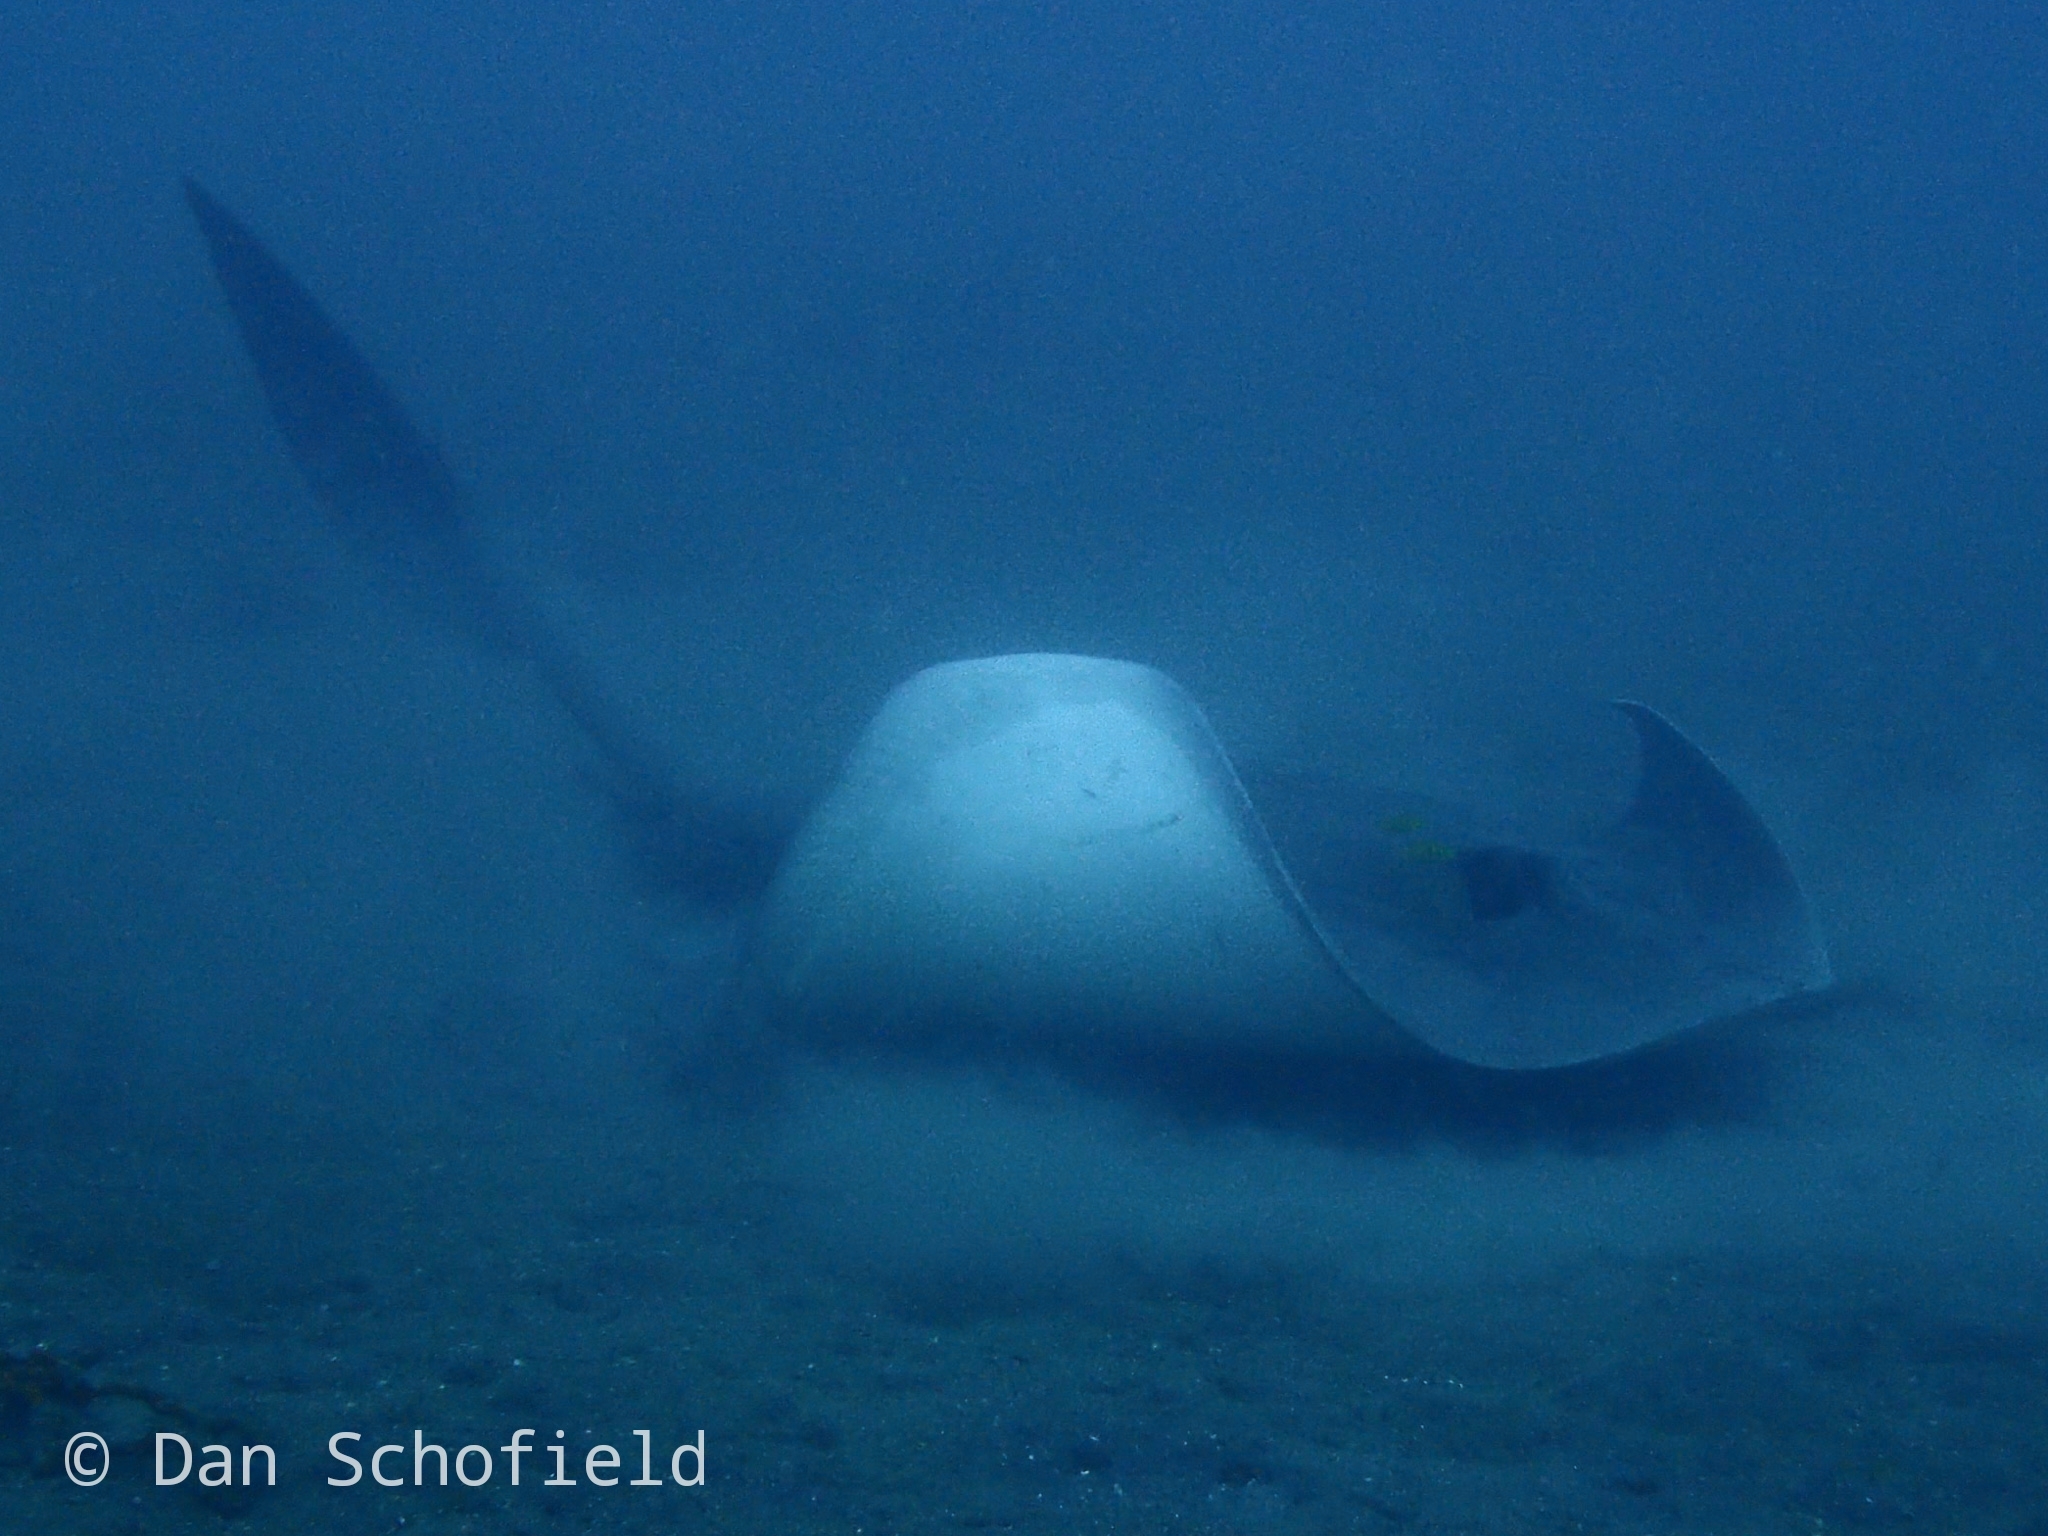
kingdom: Animalia
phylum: Chordata
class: Elasmobranchii
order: Myliobatiformes
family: Dasyatidae
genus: Pastinachus
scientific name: Pastinachus ater
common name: Banana-tail ray
